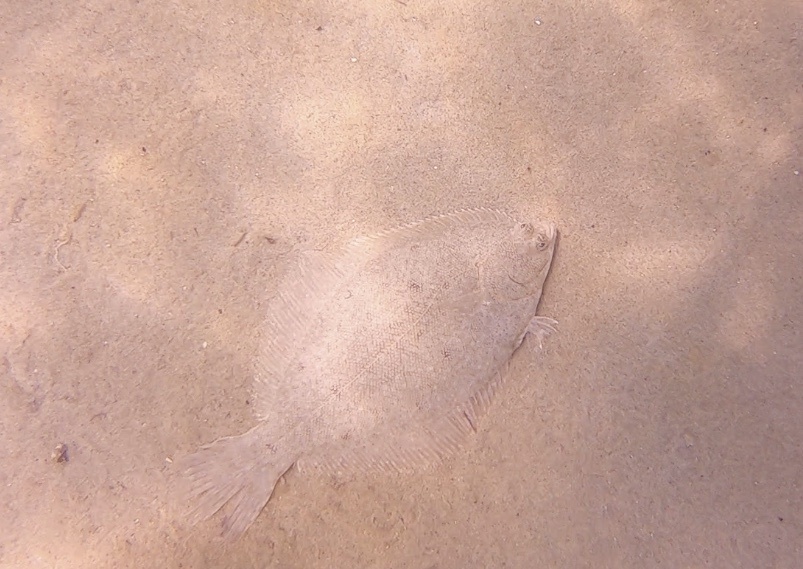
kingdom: Animalia
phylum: Chordata
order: Pleuronectiformes
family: Pleuronectidae
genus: Pseudopleuronectes
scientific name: Pseudopleuronectes americanus
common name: Black backs
